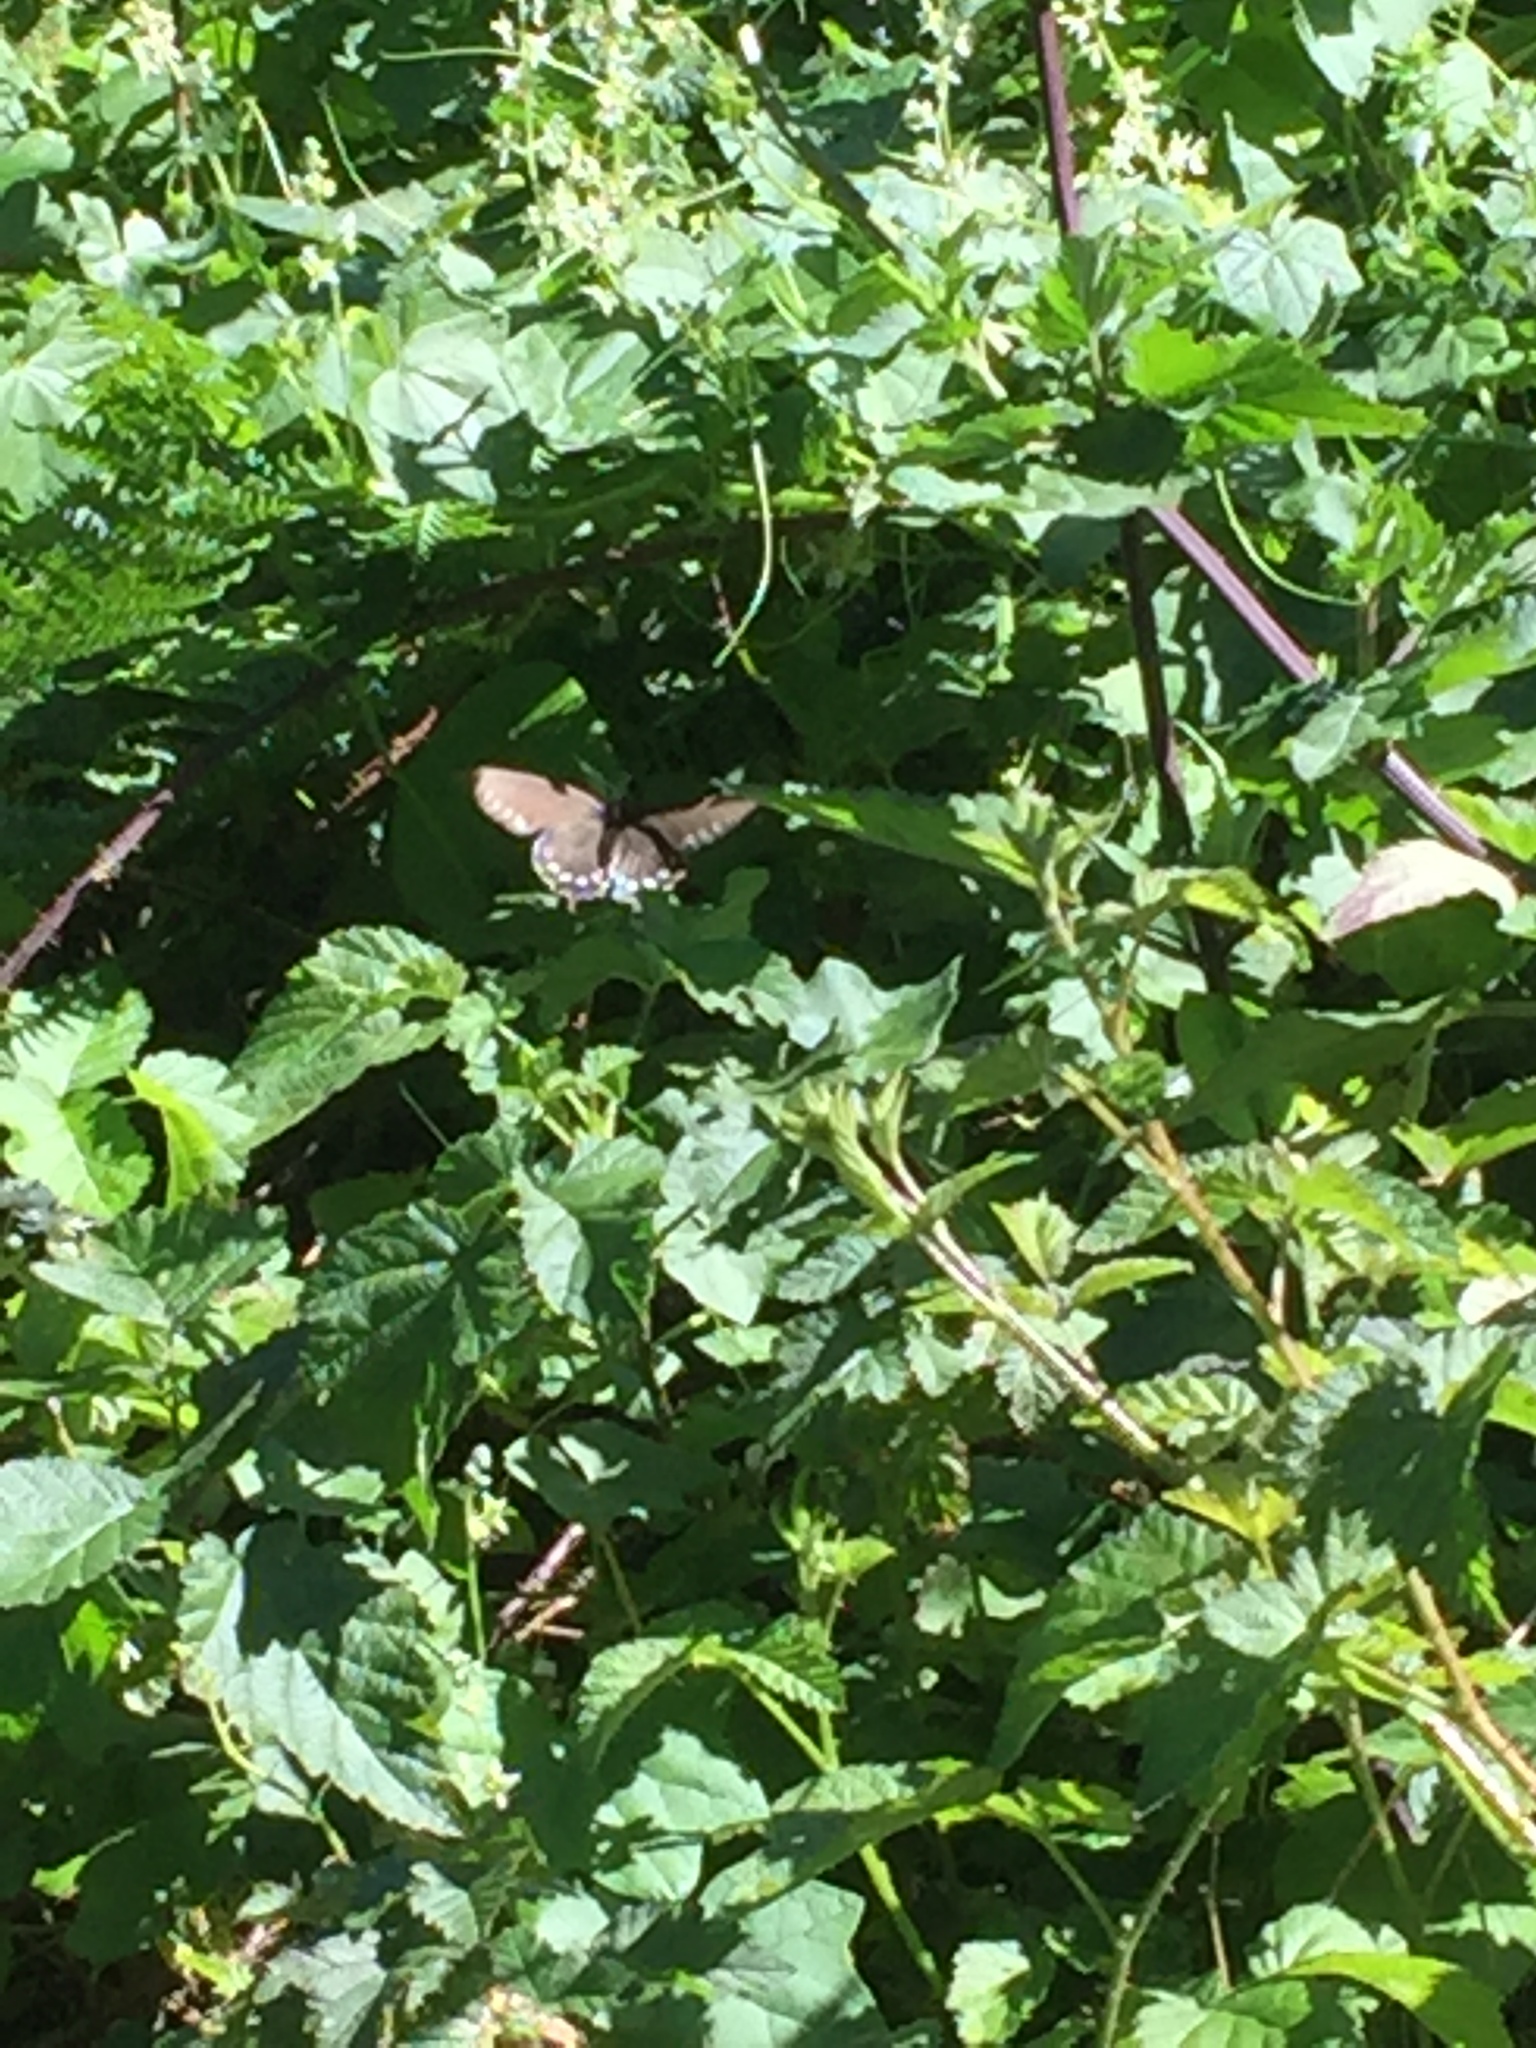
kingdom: Animalia
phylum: Arthropoda
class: Insecta
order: Lepidoptera
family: Papilionidae
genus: Battus
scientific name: Battus philenor
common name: Pipevine swallowtail
